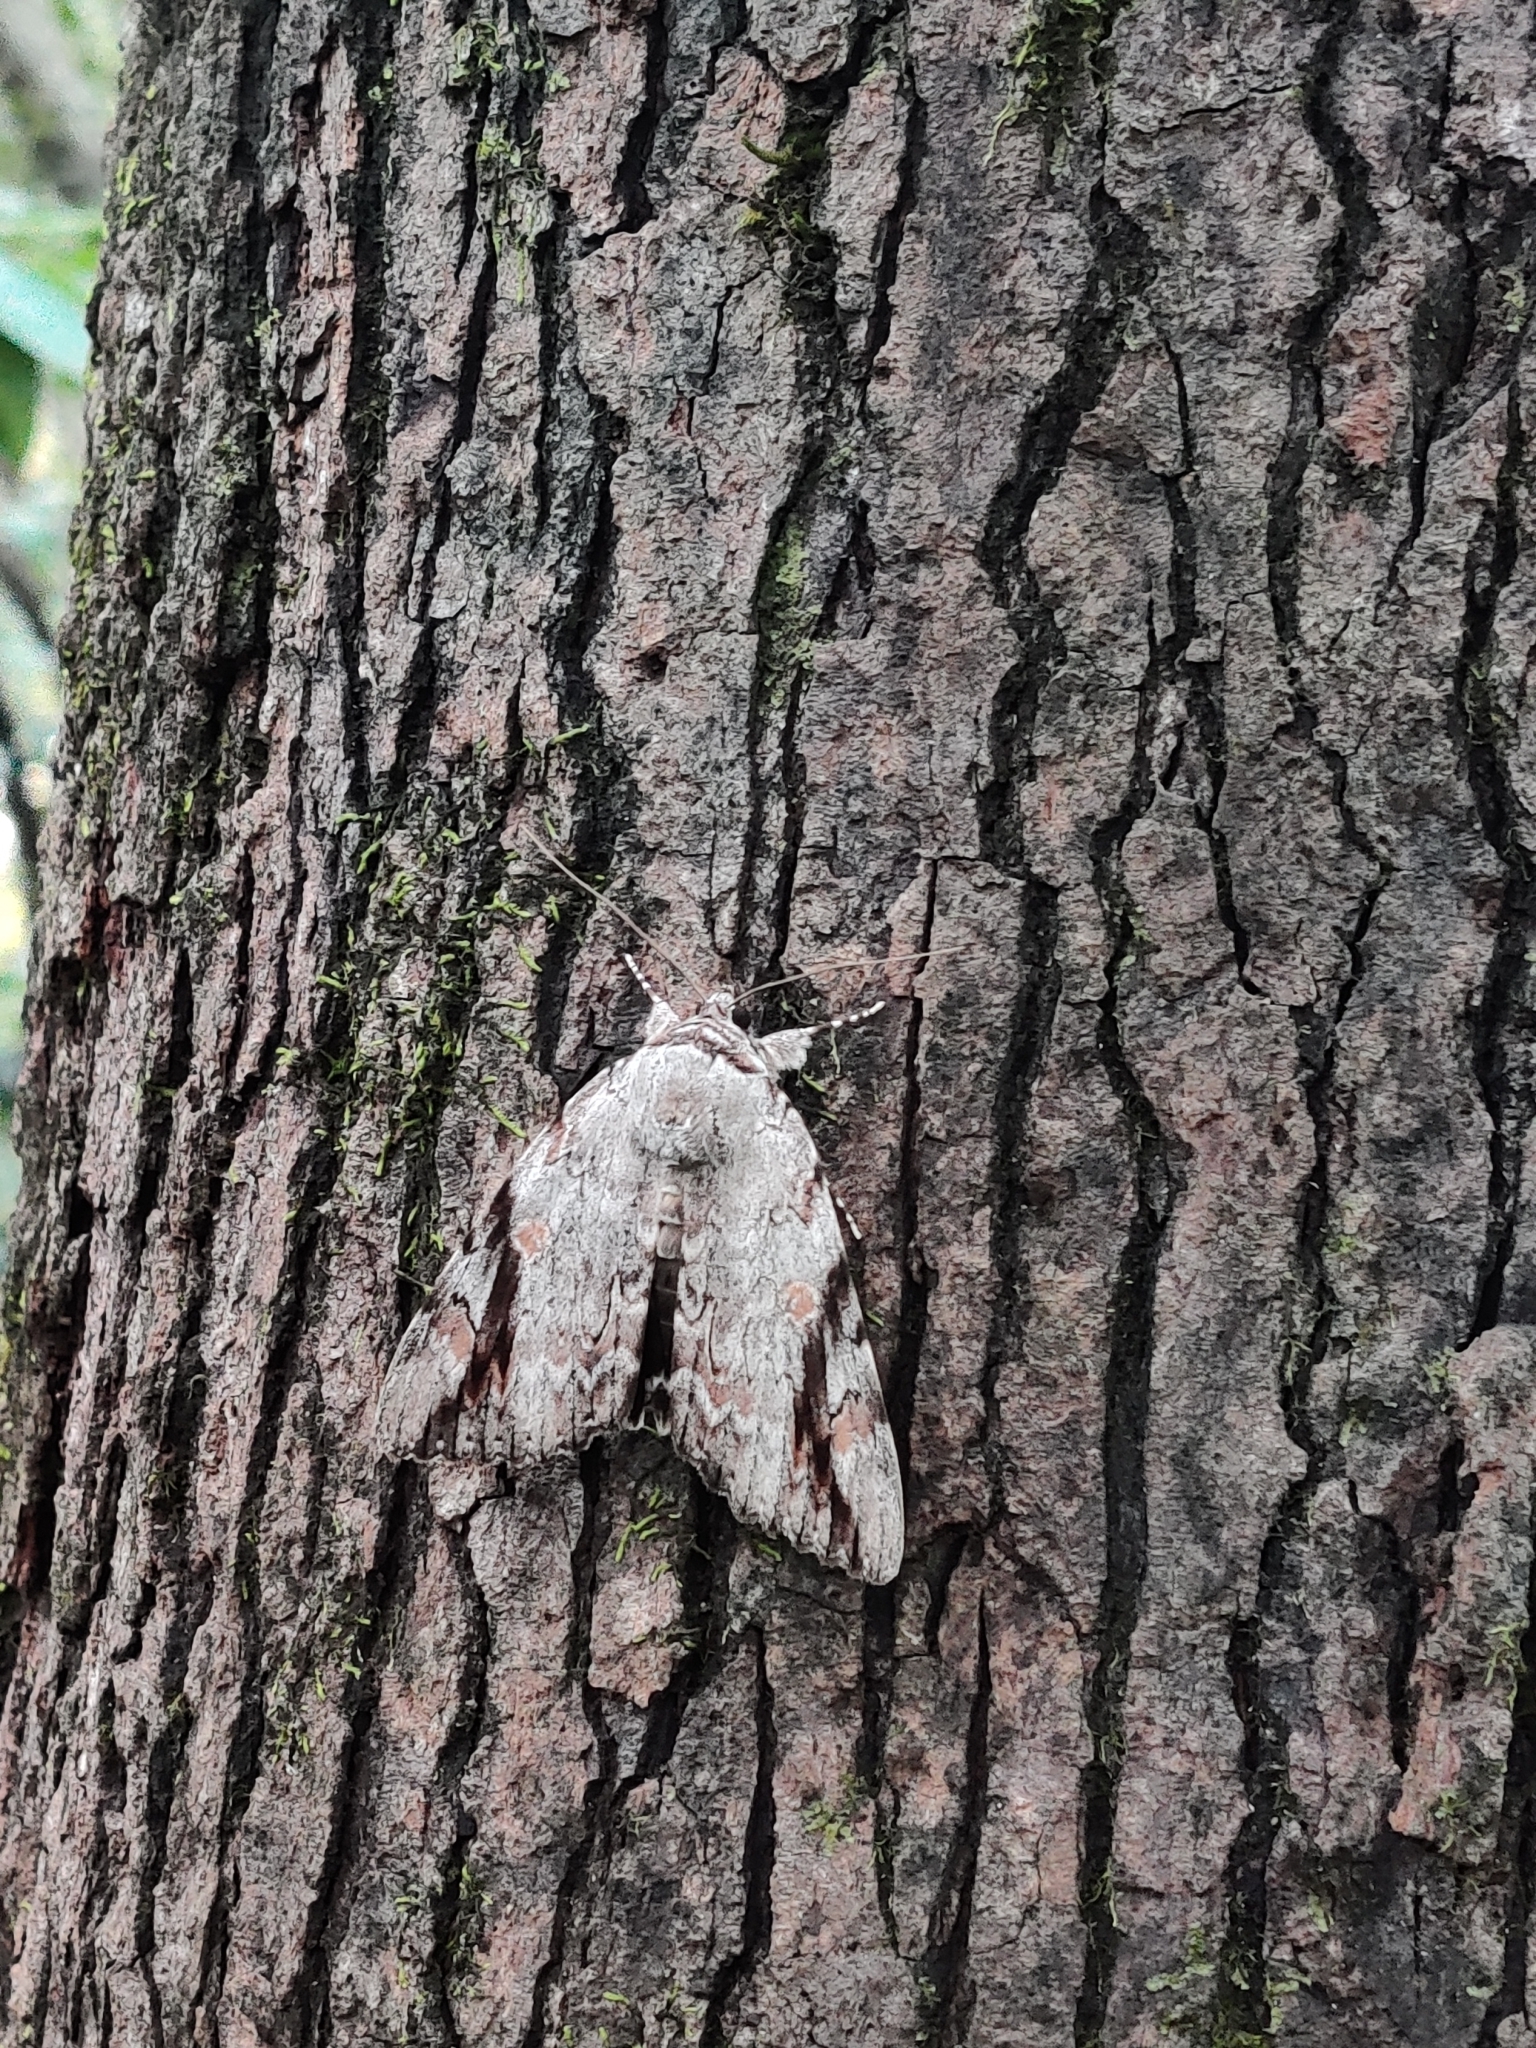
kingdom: Animalia
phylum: Arthropoda
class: Insecta
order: Lepidoptera
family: Erebidae
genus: Catocala
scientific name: Catocala maestosa
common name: Sad underwing
